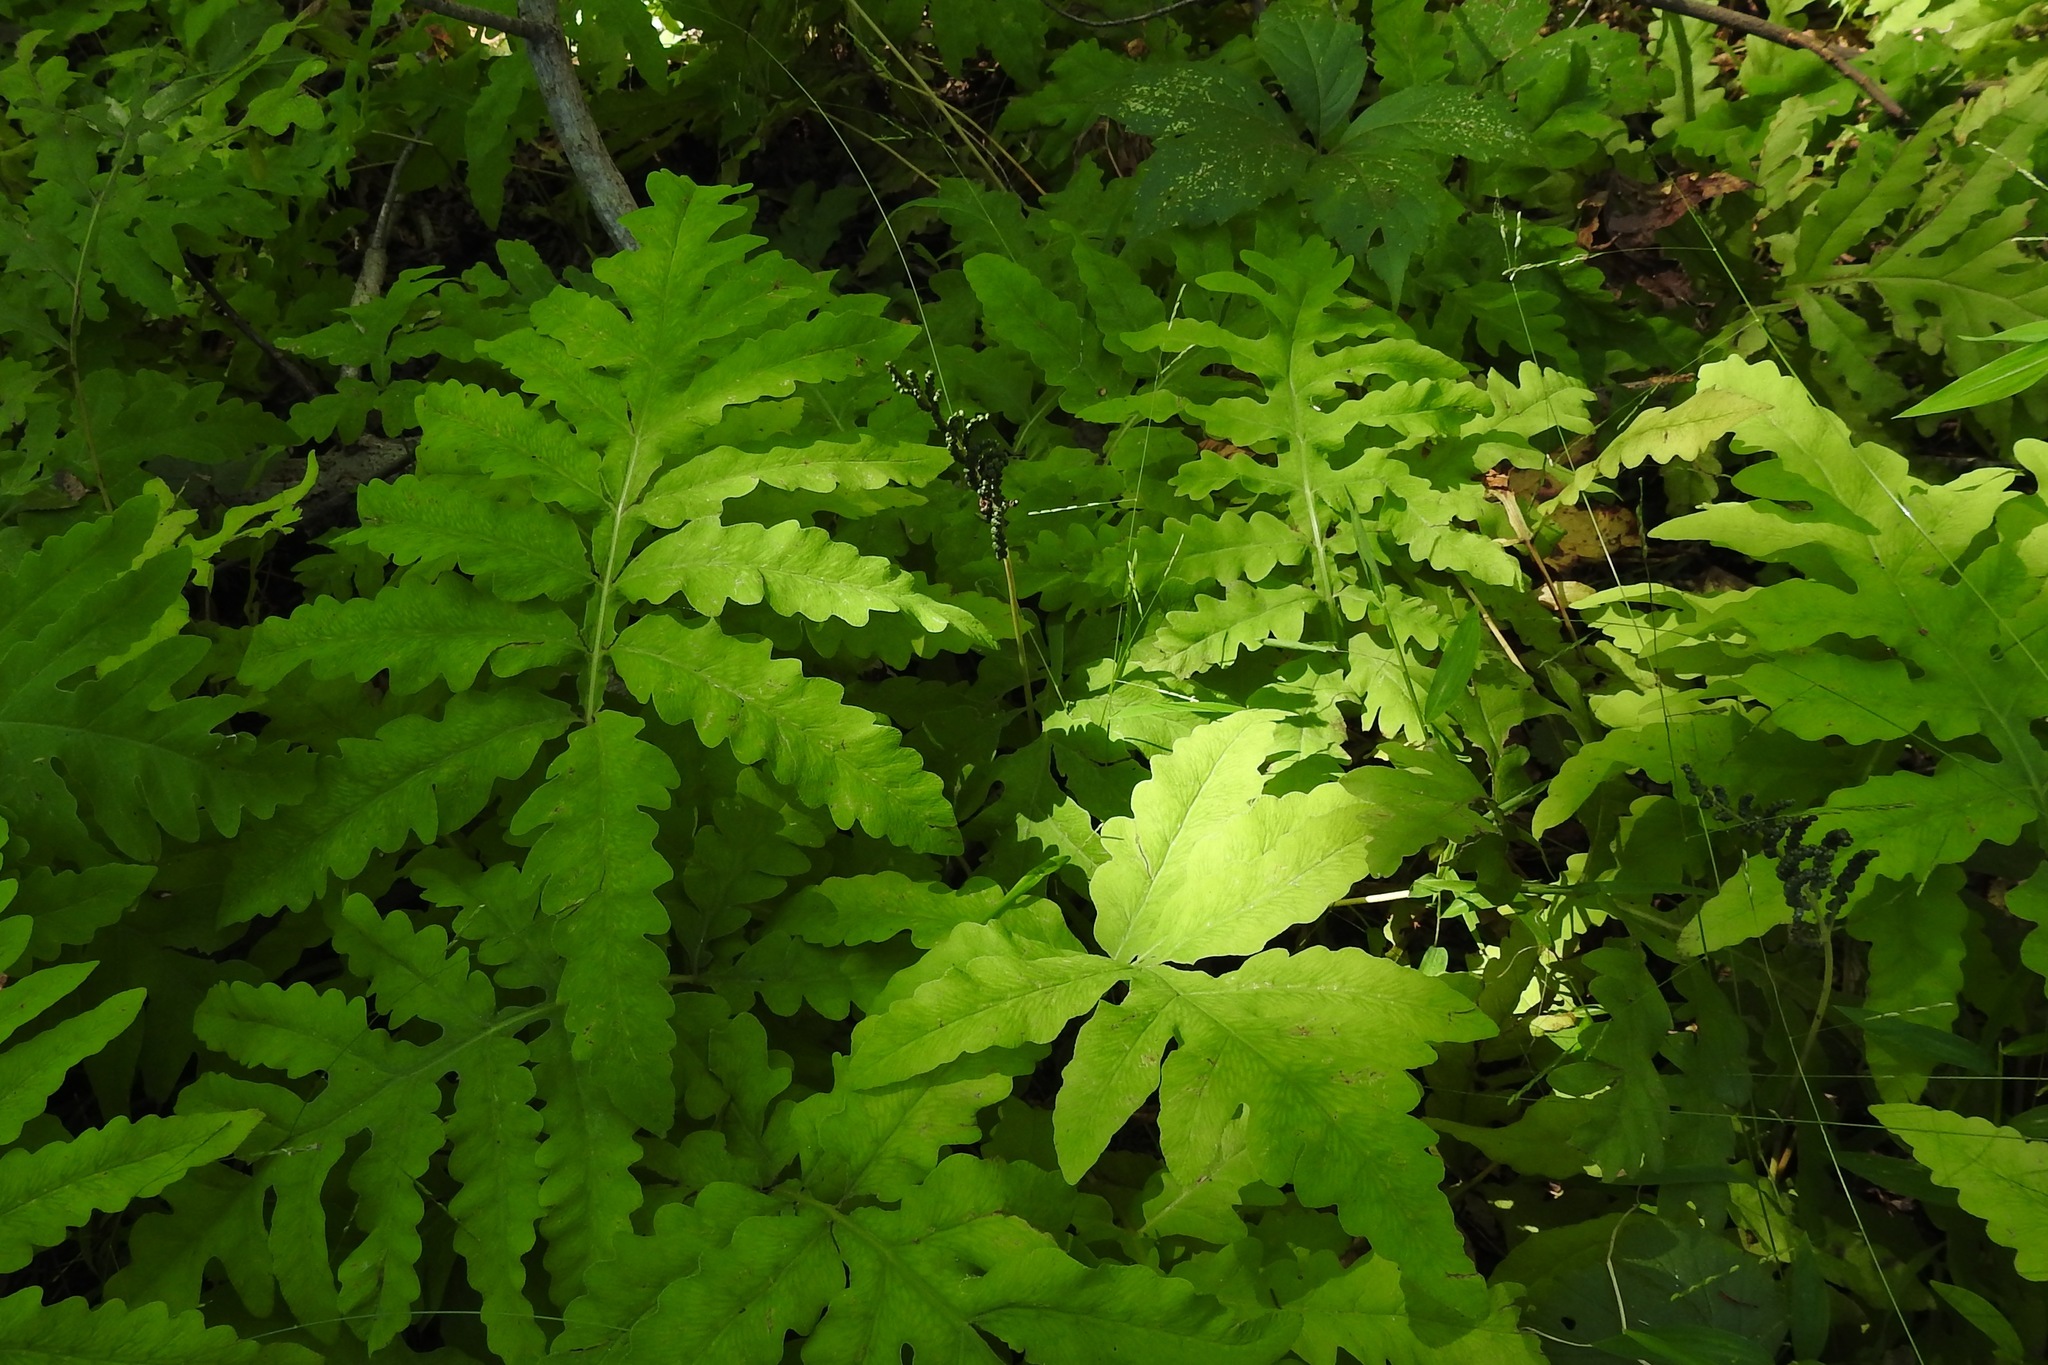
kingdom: Plantae
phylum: Tracheophyta
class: Polypodiopsida
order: Polypodiales
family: Onocleaceae
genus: Onoclea
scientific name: Onoclea sensibilis
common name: Sensitive fern
